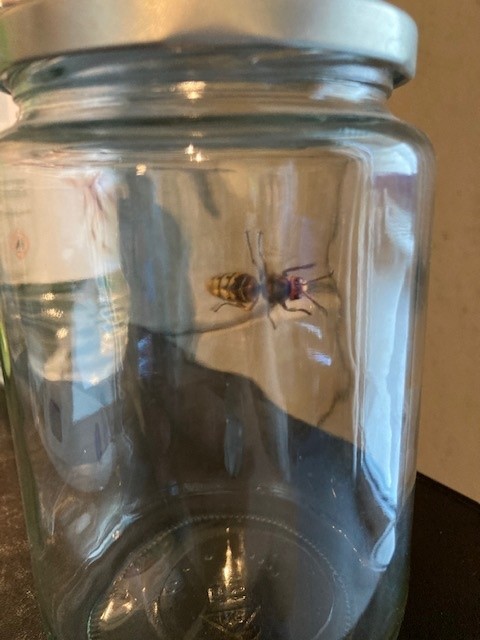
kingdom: Animalia
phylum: Arthropoda
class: Insecta
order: Hymenoptera
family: Vespidae
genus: Vespa
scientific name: Vespa crabro
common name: Hornet
